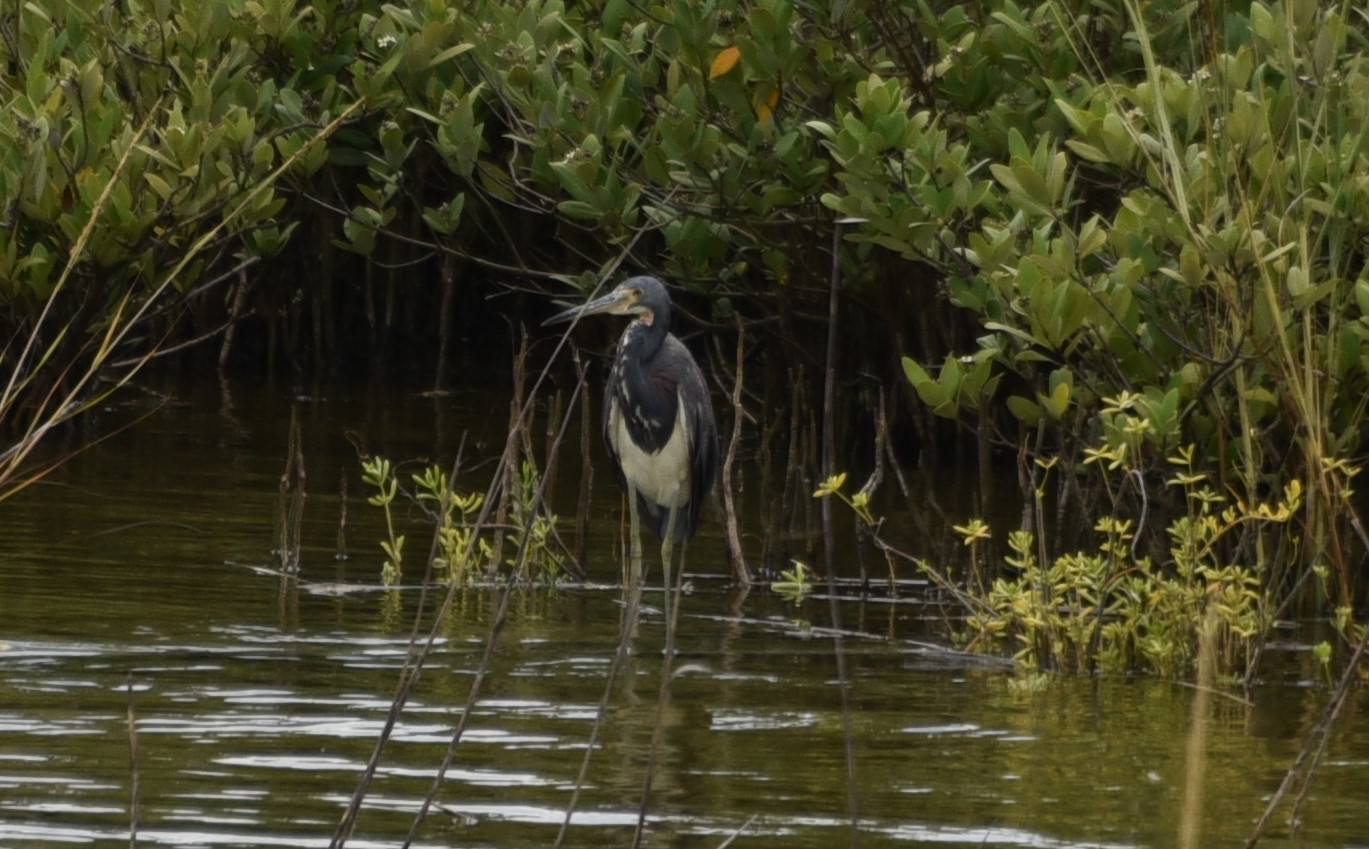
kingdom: Animalia
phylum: Chordata
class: Aves
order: Pelecaniformes
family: Ardeidae
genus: Egretta
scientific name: Egretta tricolor
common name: Tricolored heron
